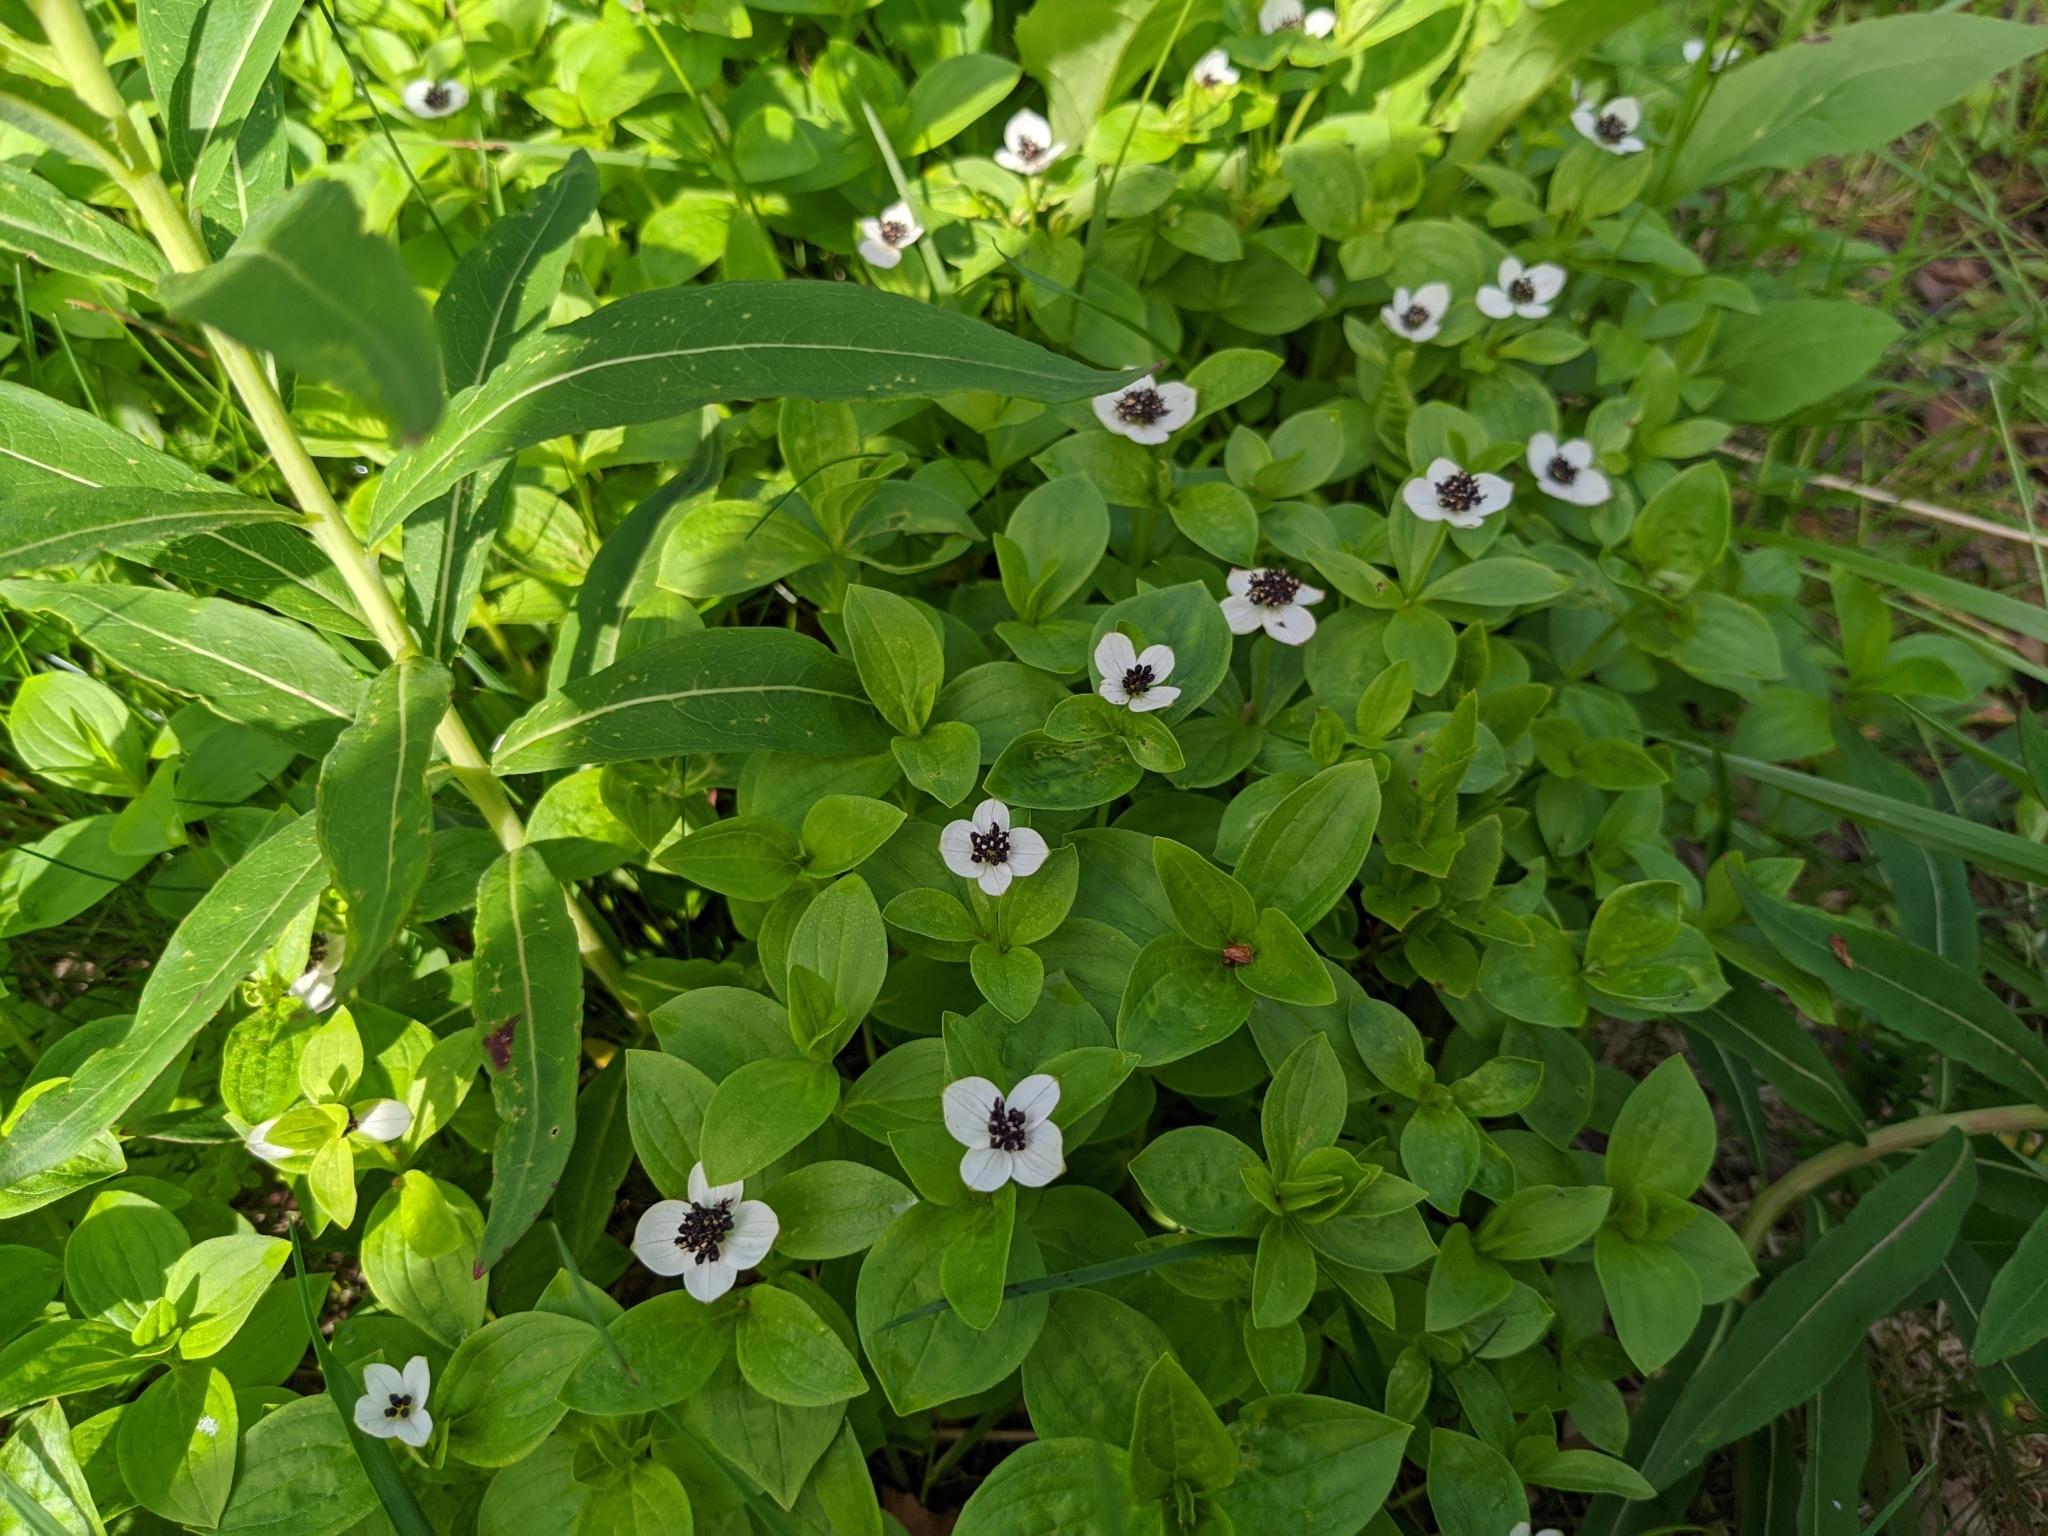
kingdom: Plantae
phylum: Tracheophyta
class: Magnoliopsida
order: Cornales
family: Cornaceae
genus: Cornus
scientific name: Cornus suecica
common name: Dwarf cornel
